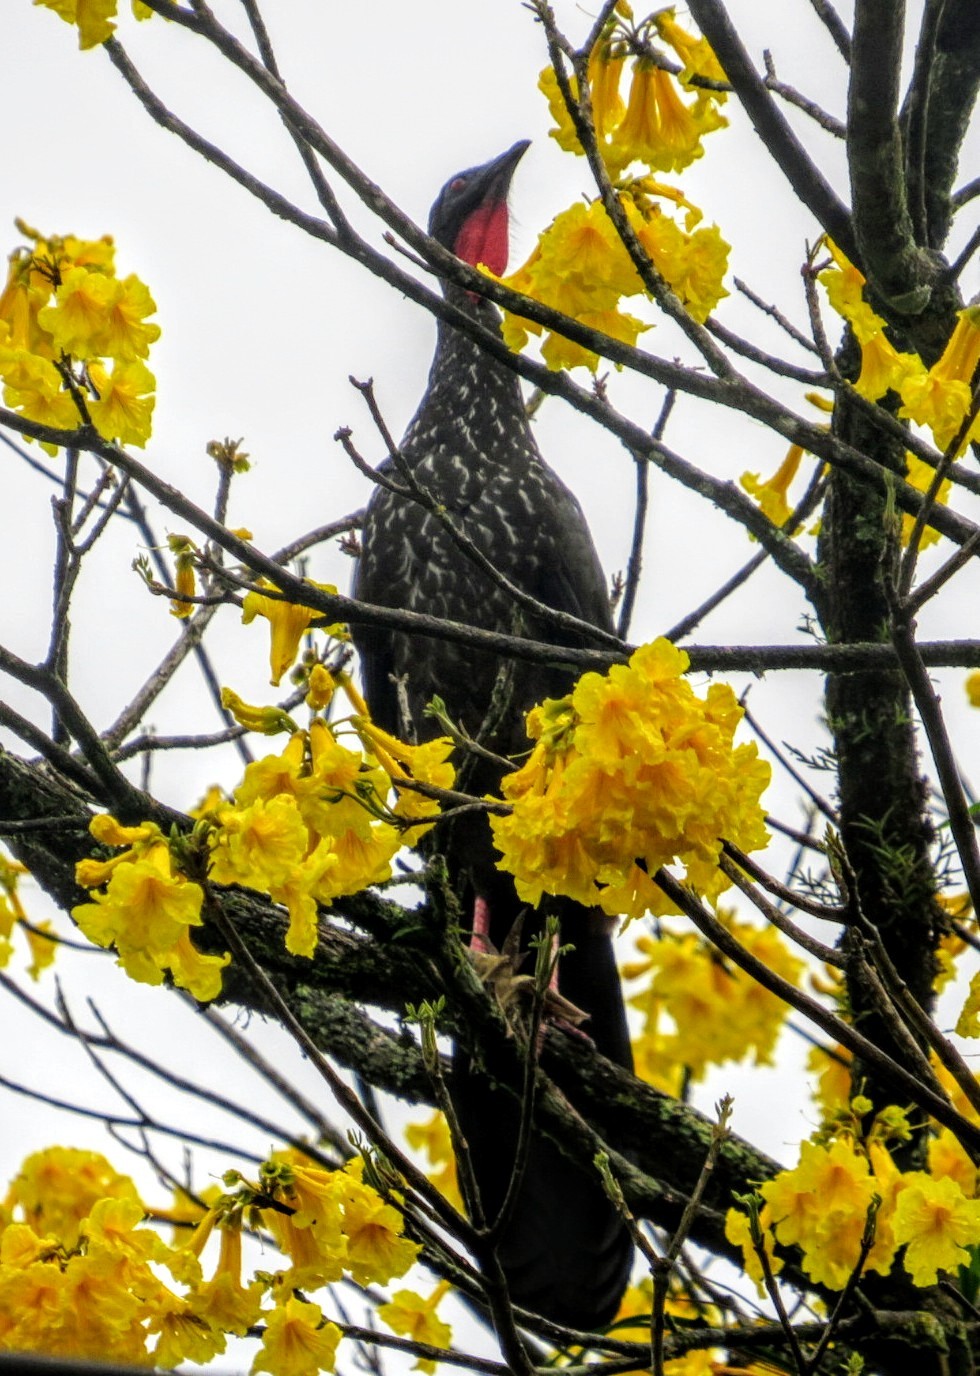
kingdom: Animalia
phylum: Chordata
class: Aves
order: Galliformes
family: Cracidae
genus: Penelope
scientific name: Penelope purpurascens
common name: Crested guan
